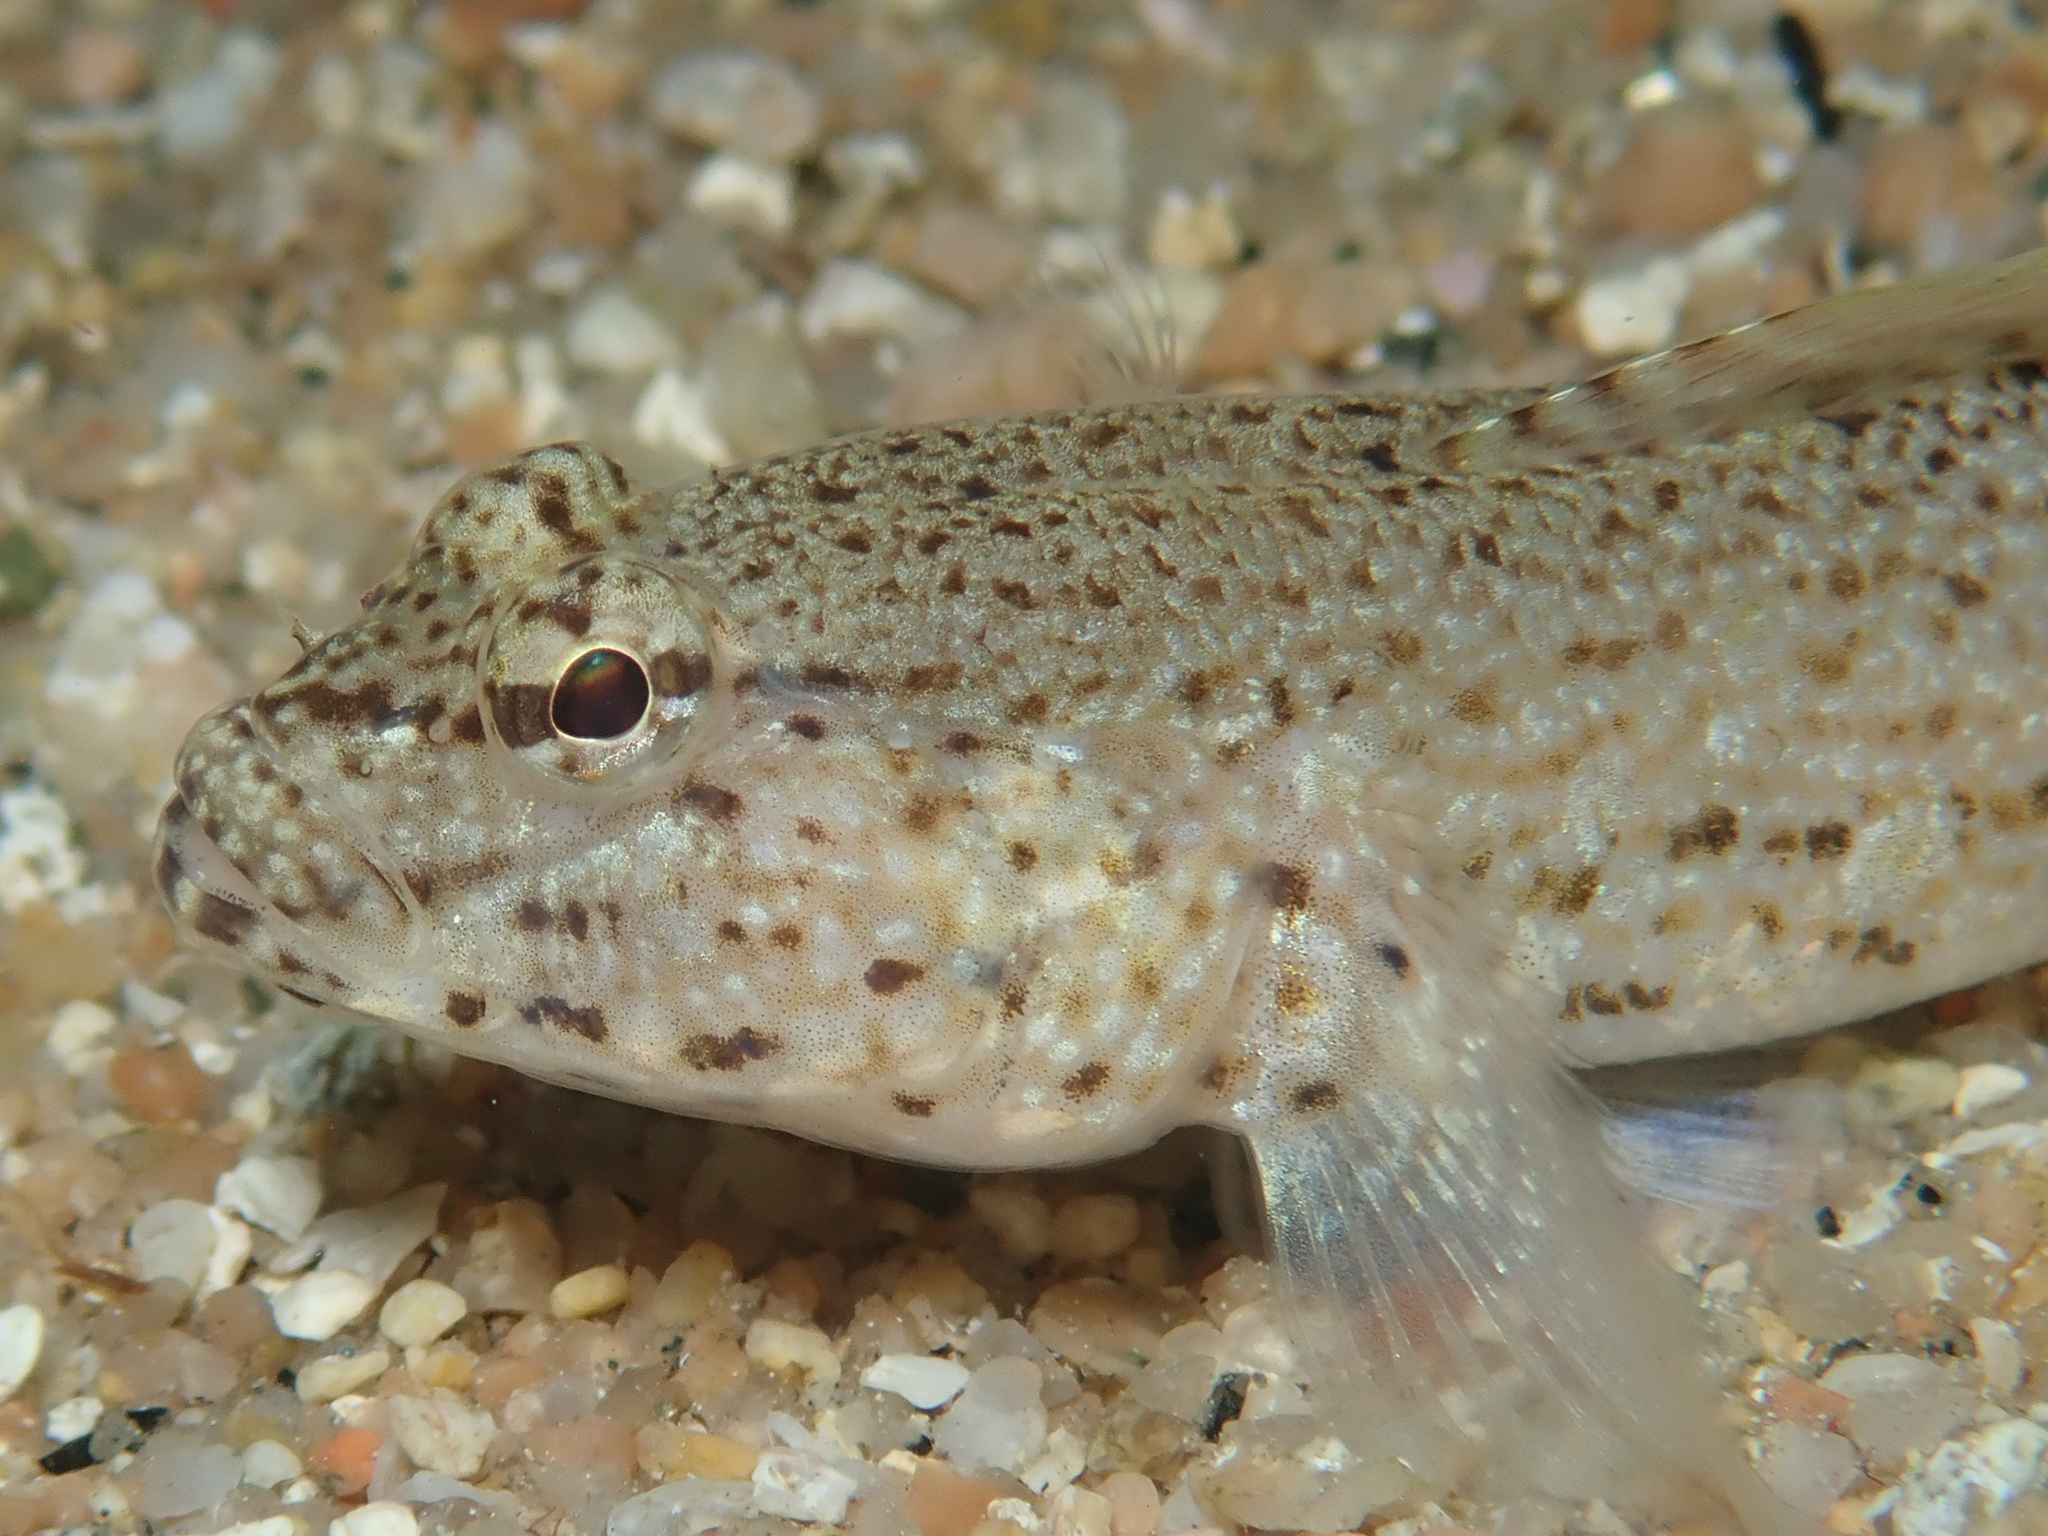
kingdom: Animalia
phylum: Chordata
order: Perciformes
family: Gobiidae
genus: Gobius
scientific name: Gobius incognitus
